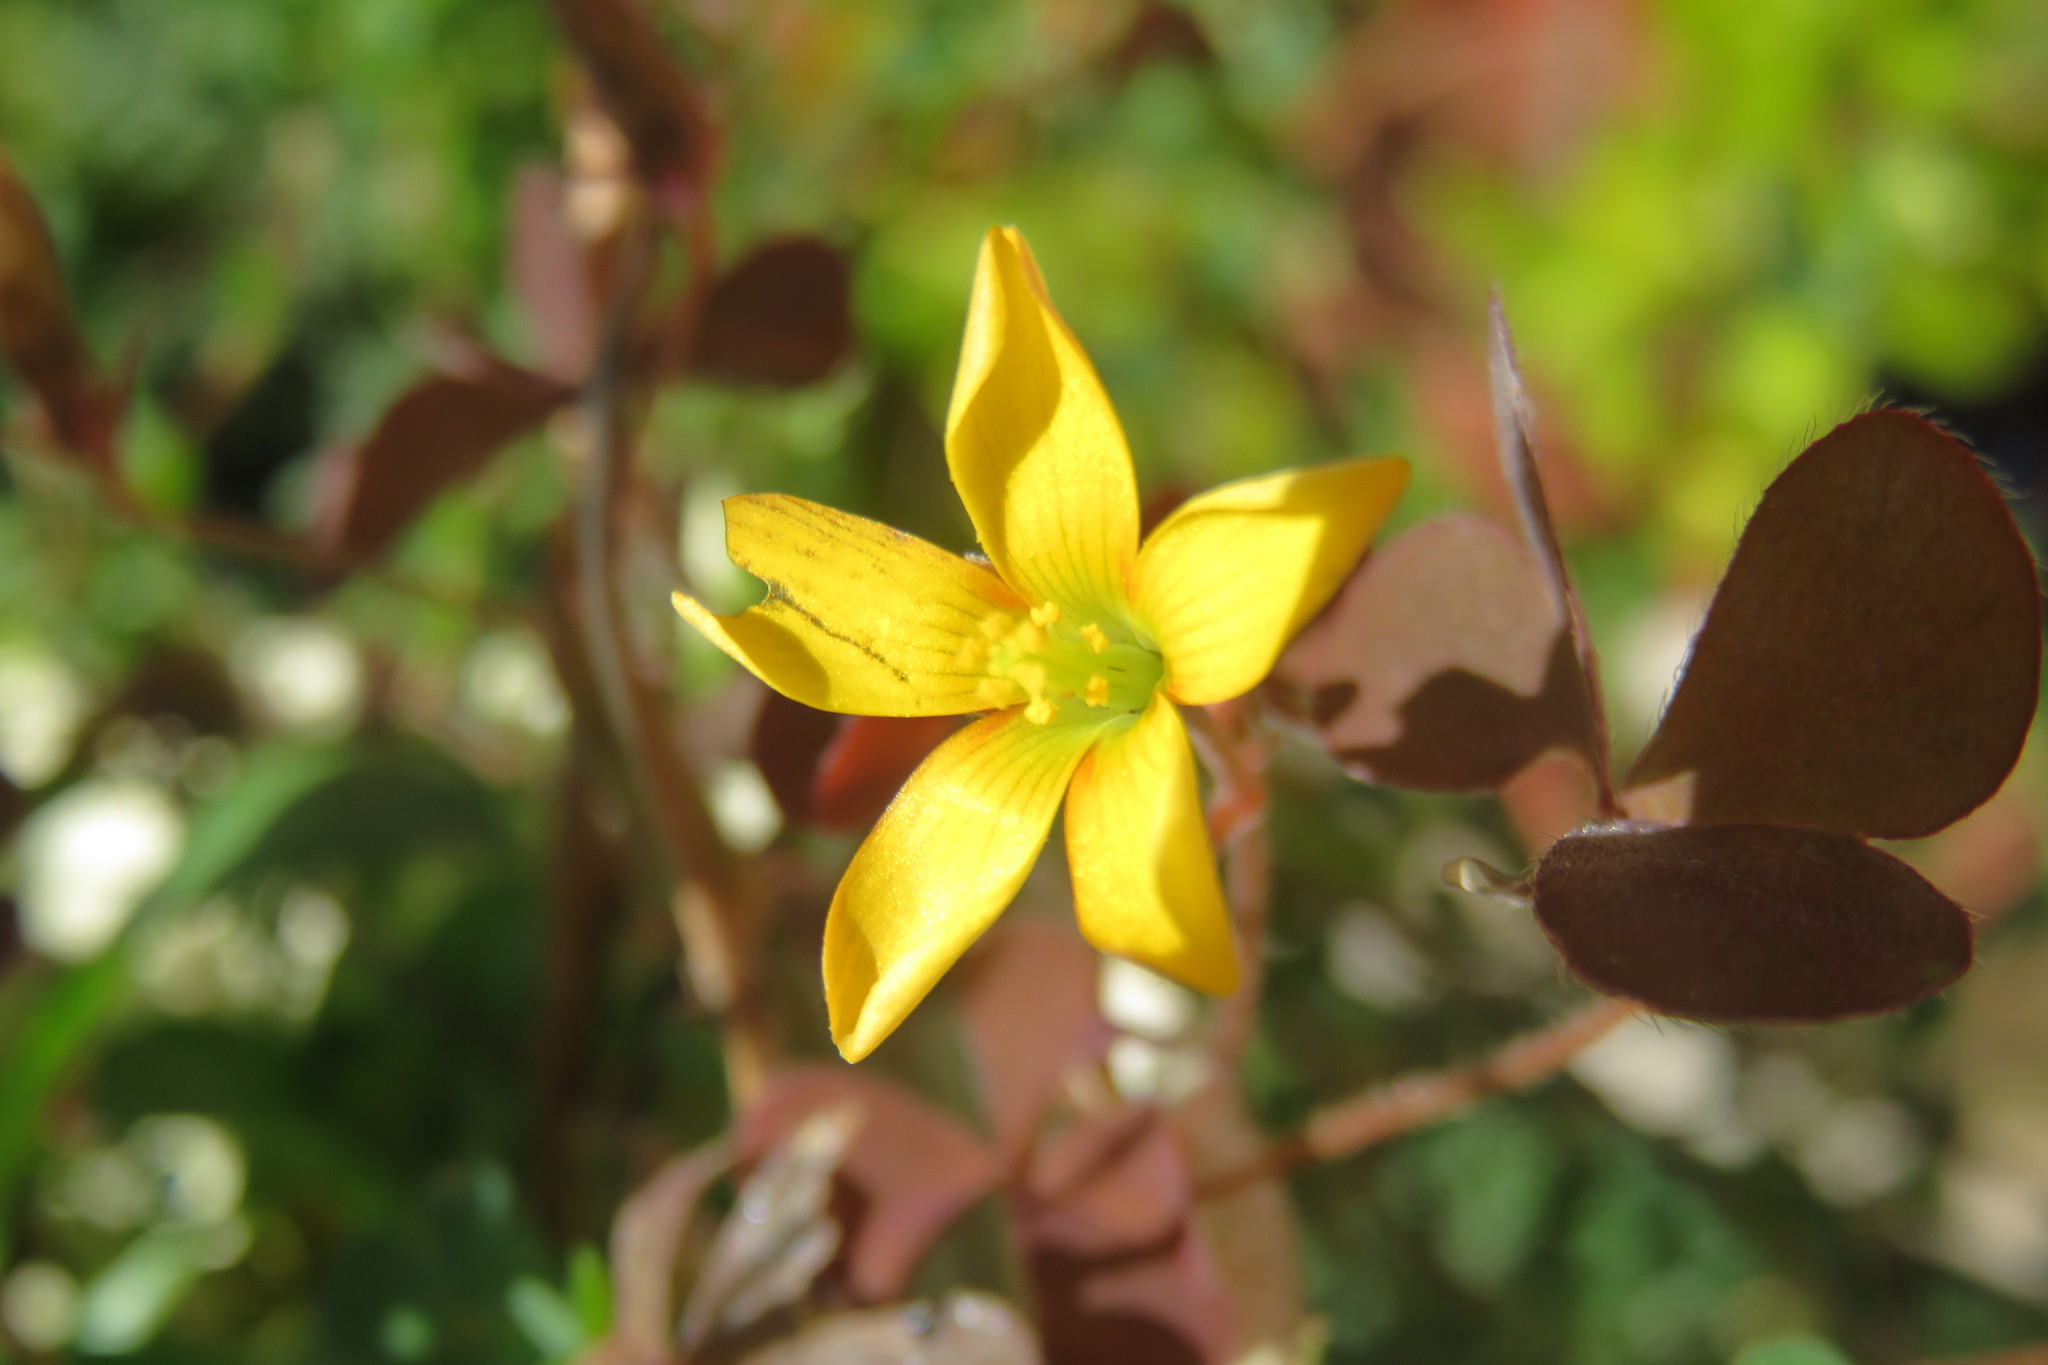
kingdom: Plantae
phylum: Tracheophyta
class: Magnoliopsida
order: Oxalidales
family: Oxalidaceae
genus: Oxalis
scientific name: Oxalis corniculata
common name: Procumbent yellow-sorrel
